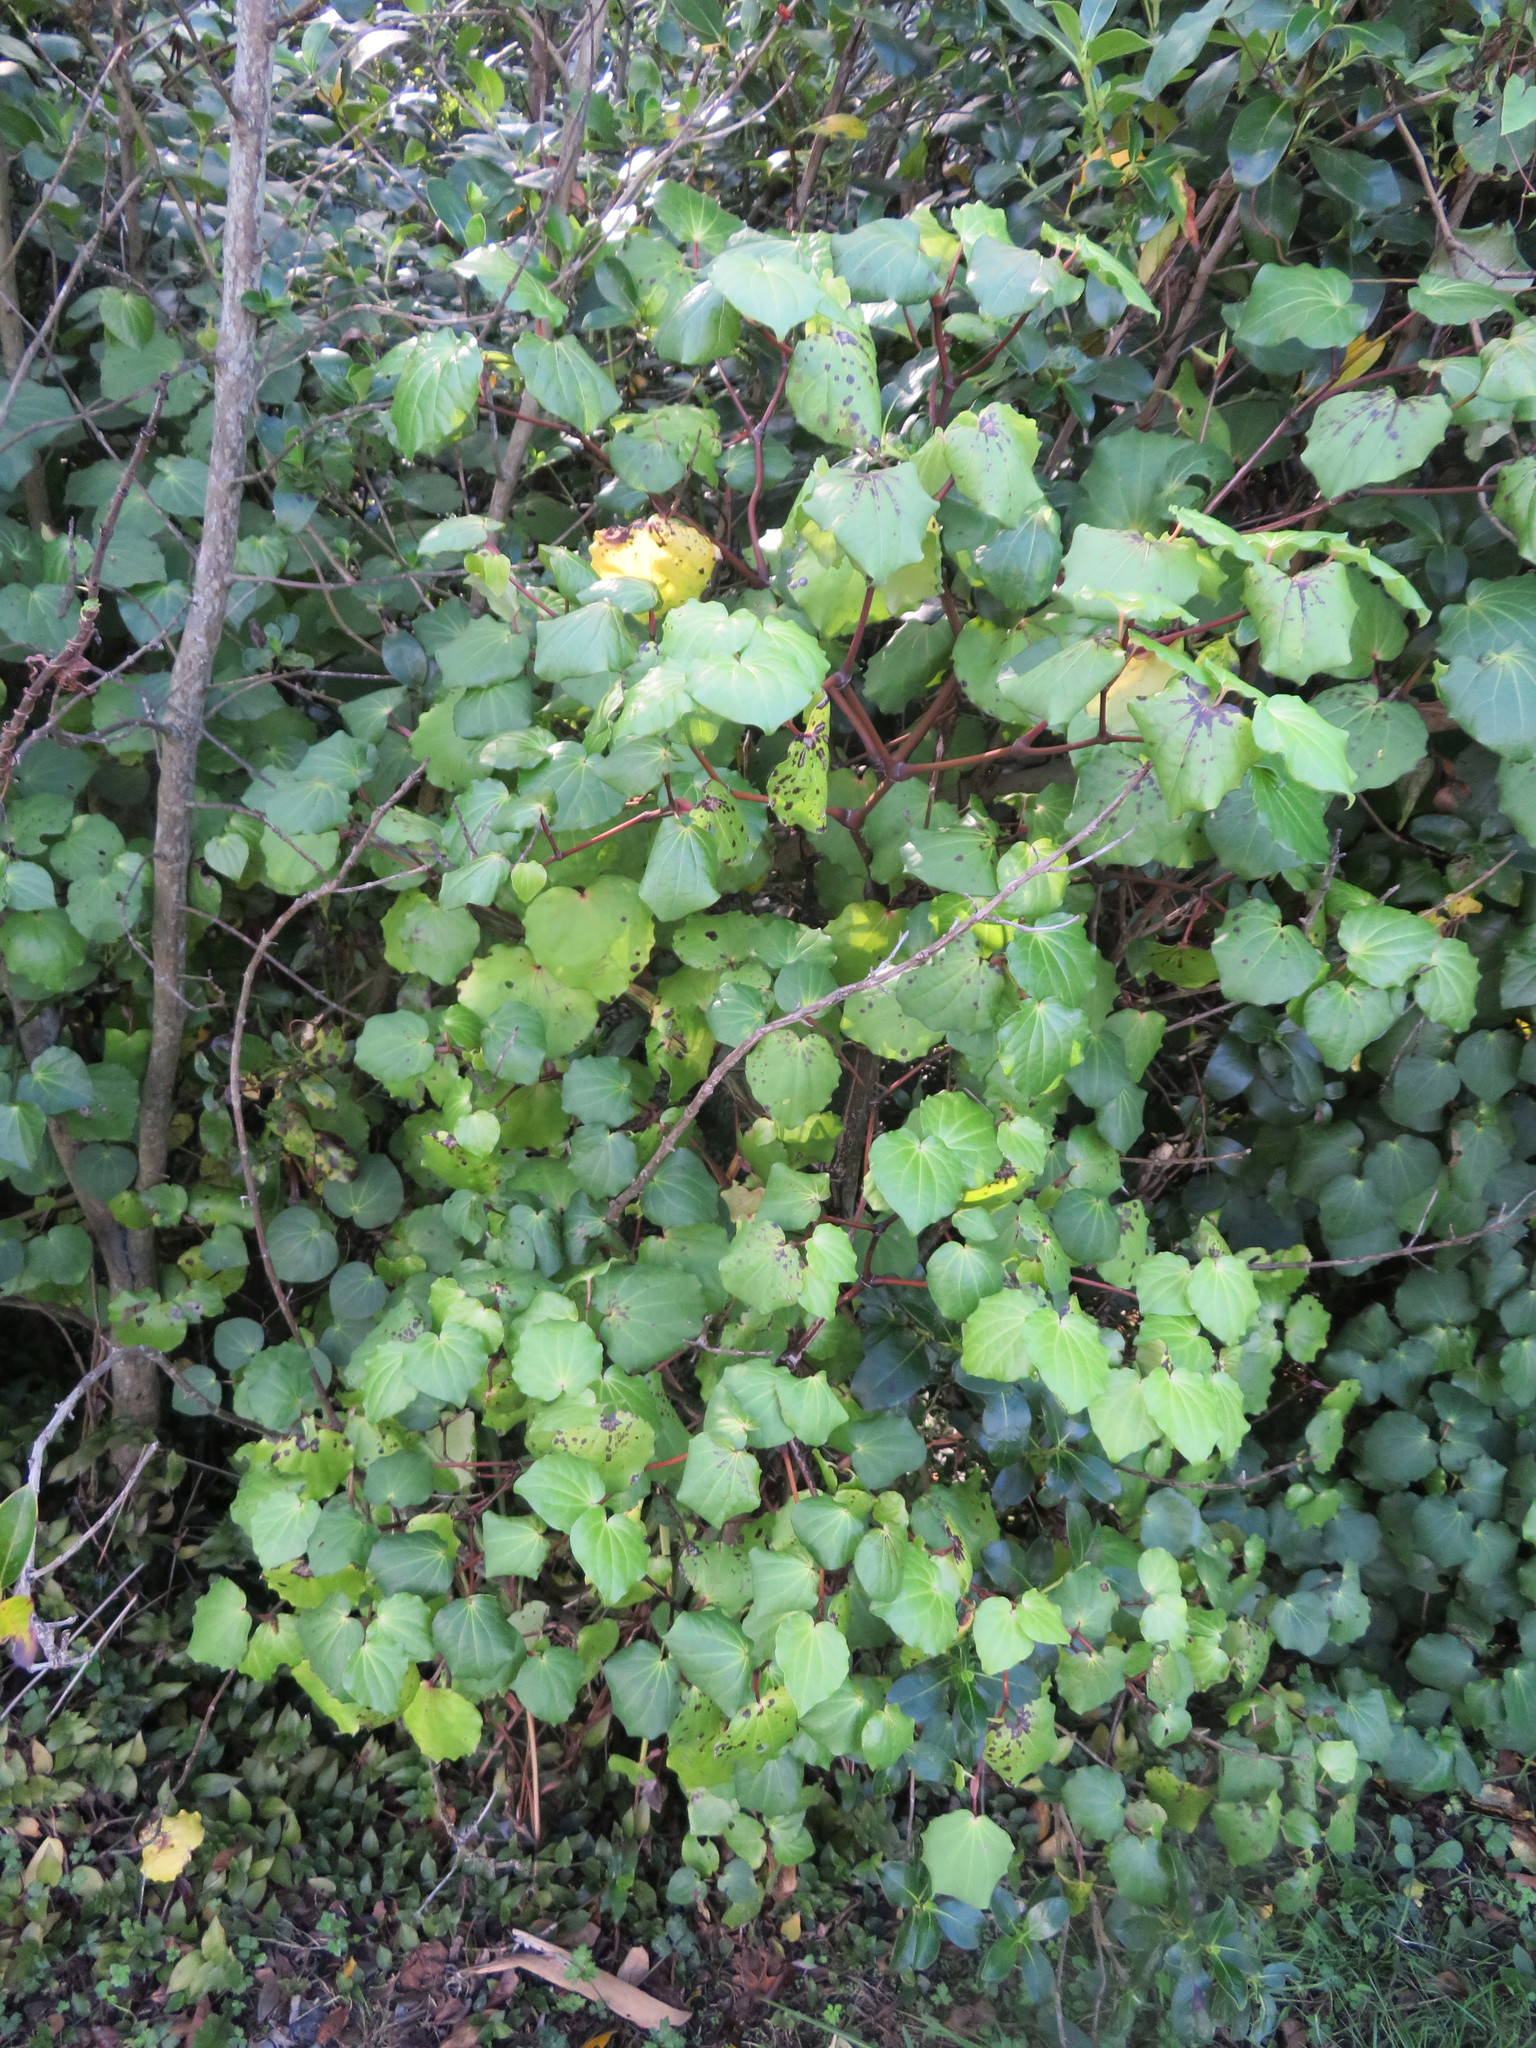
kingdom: Plantae
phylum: Tracheophyta
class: Magnoliopsida
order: Piperales
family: Piperaceae
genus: Macropiper
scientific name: Macropiper excelsum
